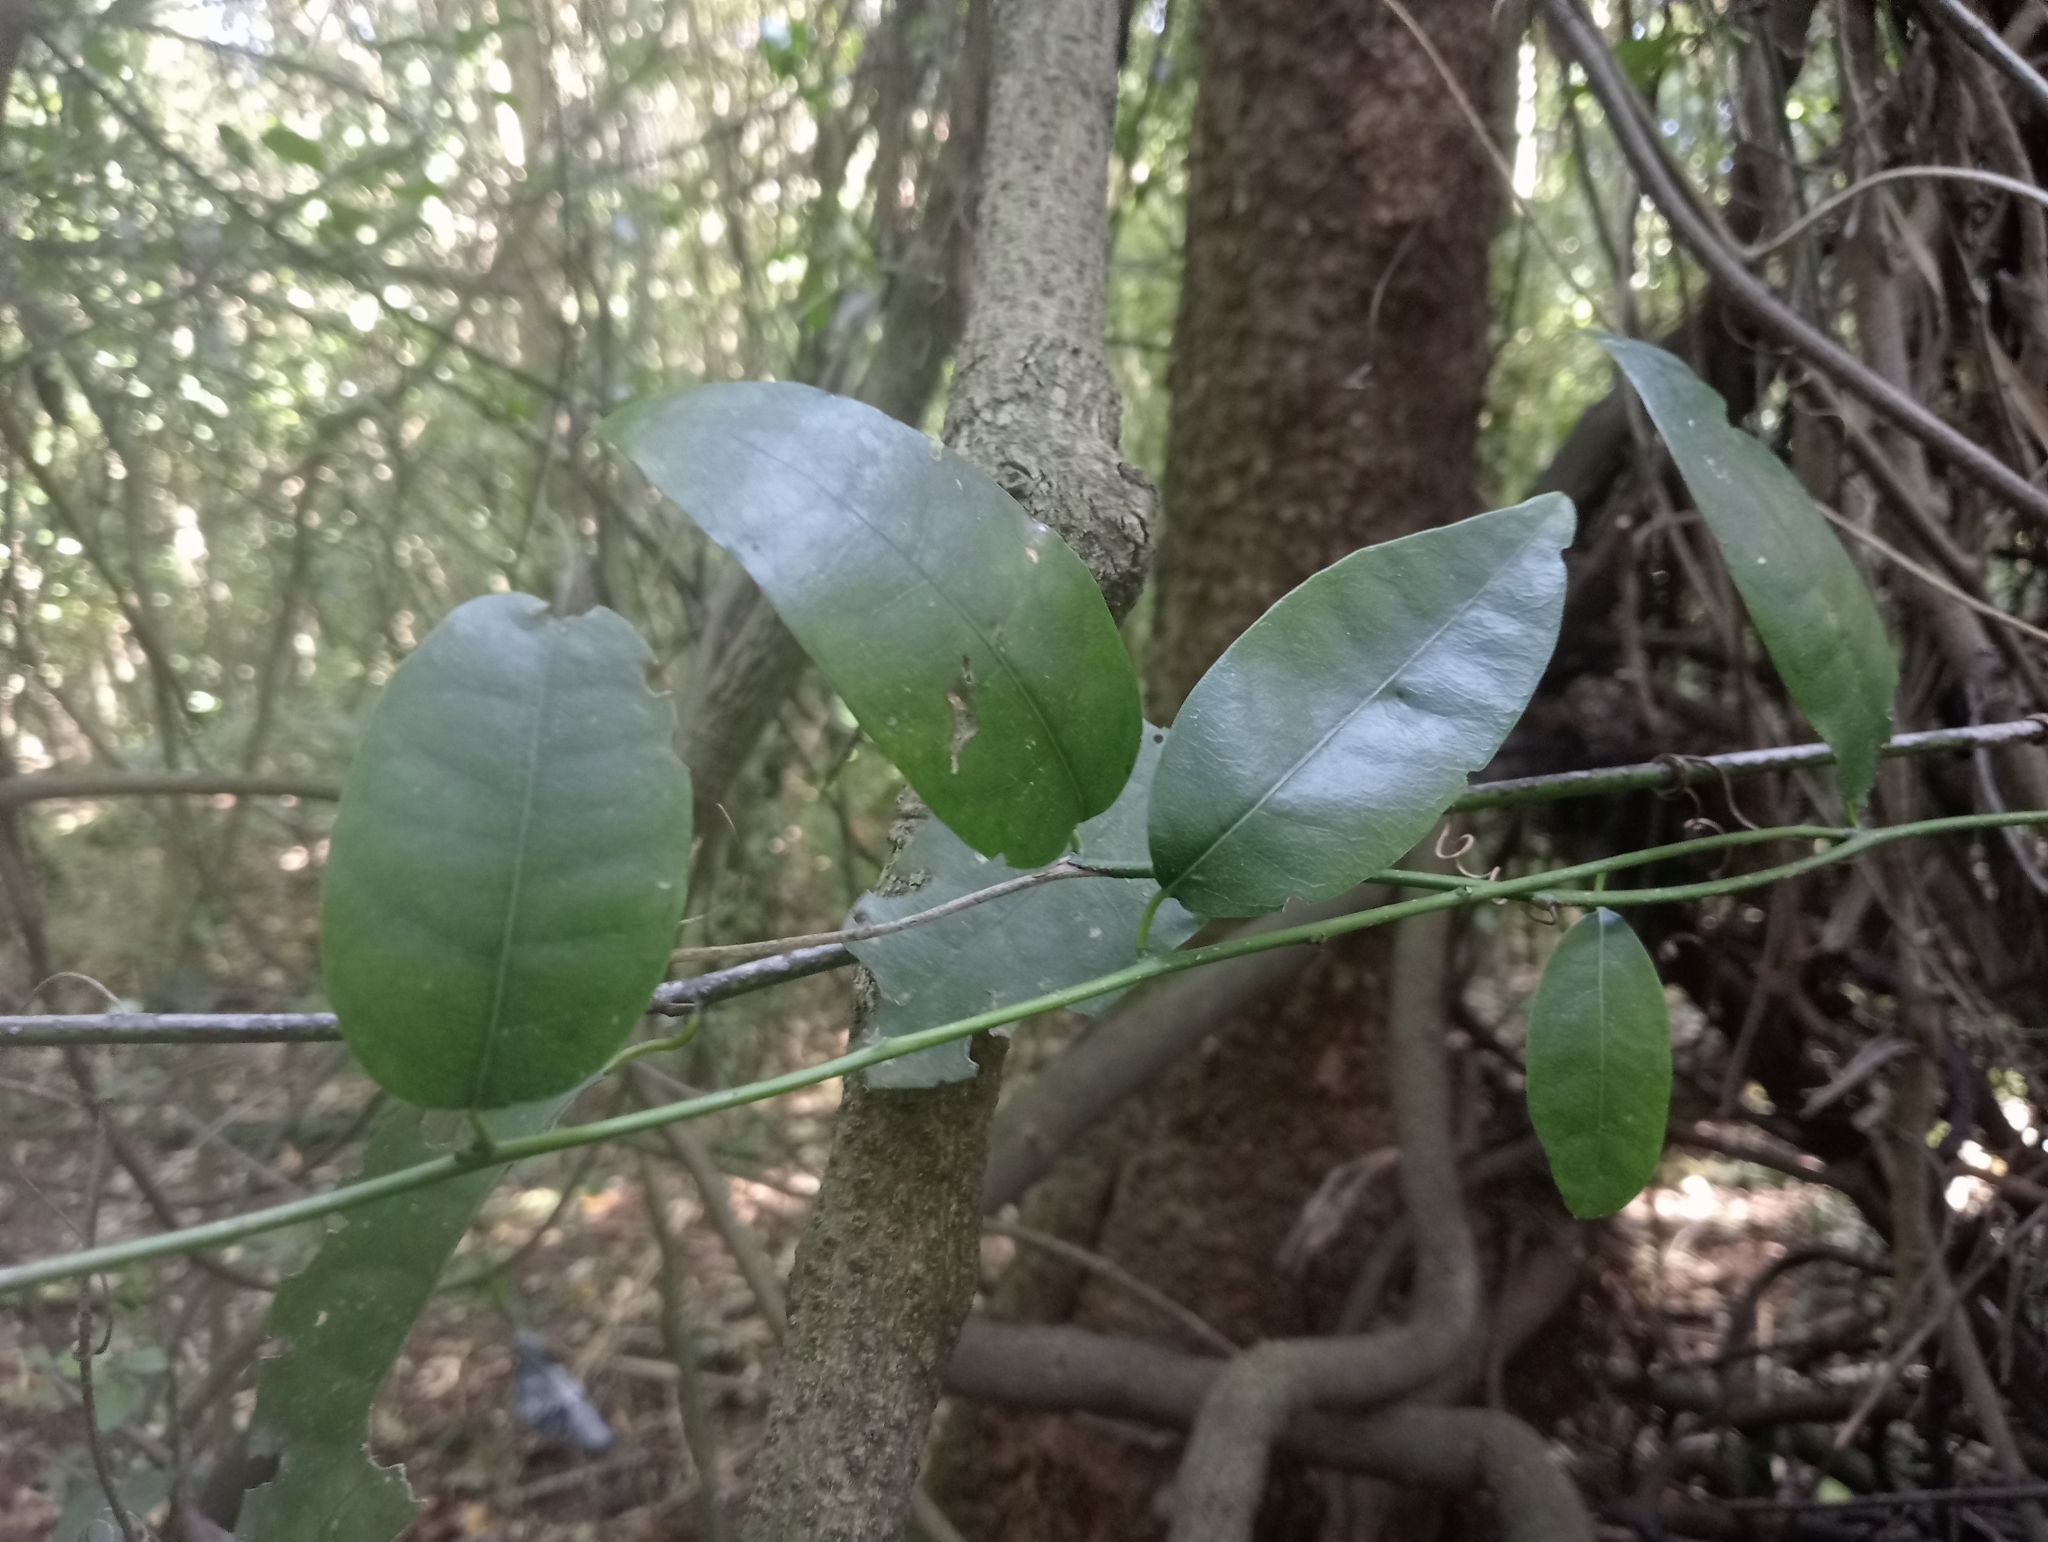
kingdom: Plantae
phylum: Tracheophyta
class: Magnoliopsida
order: Malpighiales
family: Passifloraceae
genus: Passiflora
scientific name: Passiflora tetrandra
